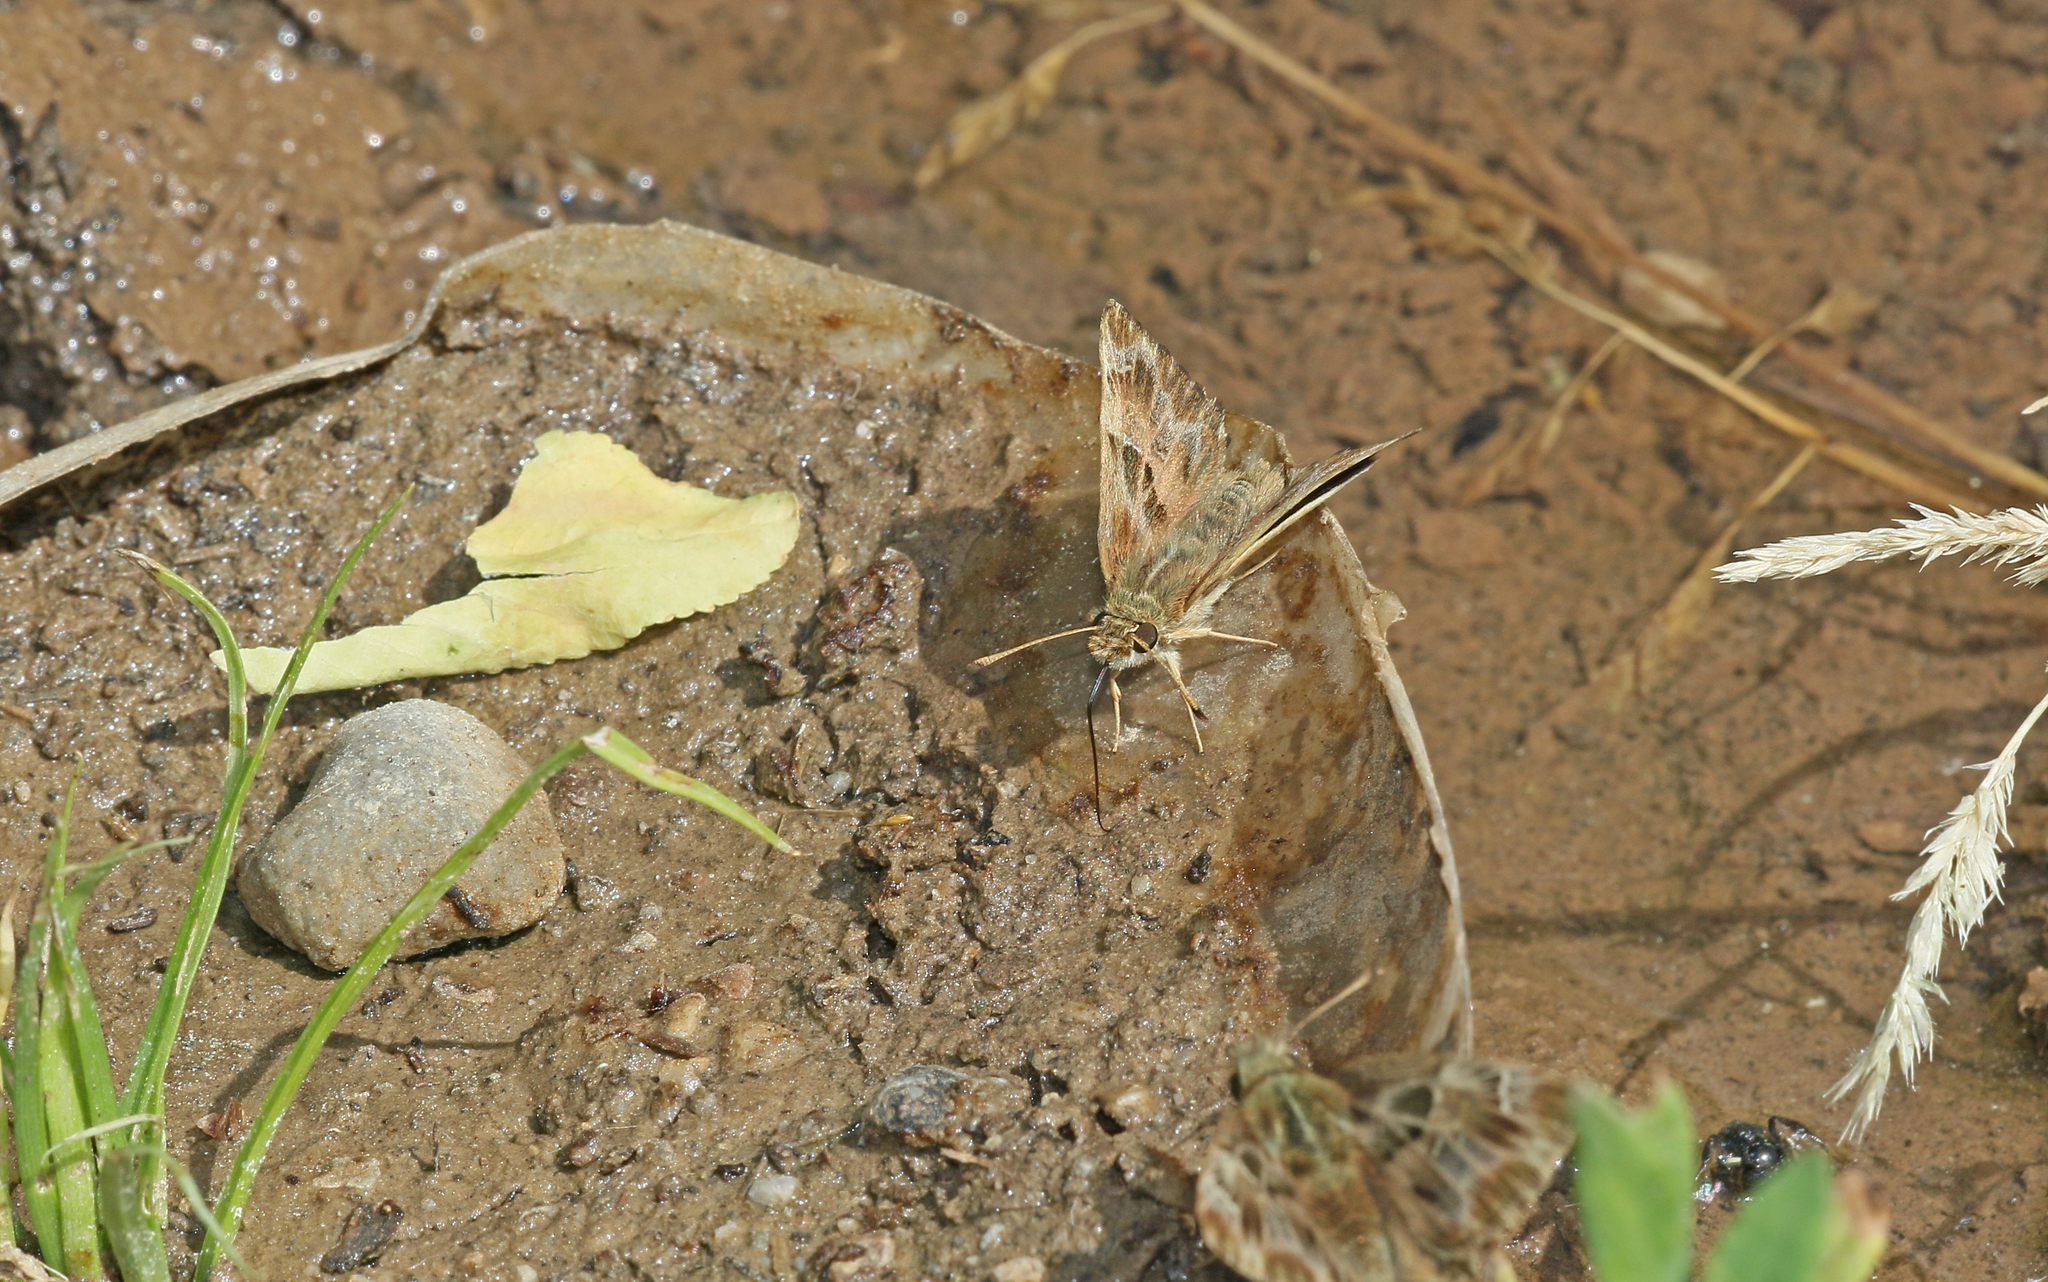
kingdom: Animalia
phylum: Arthropoda
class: Insecta
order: Lepidoptera
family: Hesperiidae
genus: Carcharodus
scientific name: Carcharodus alceae
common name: Mallow skipper
